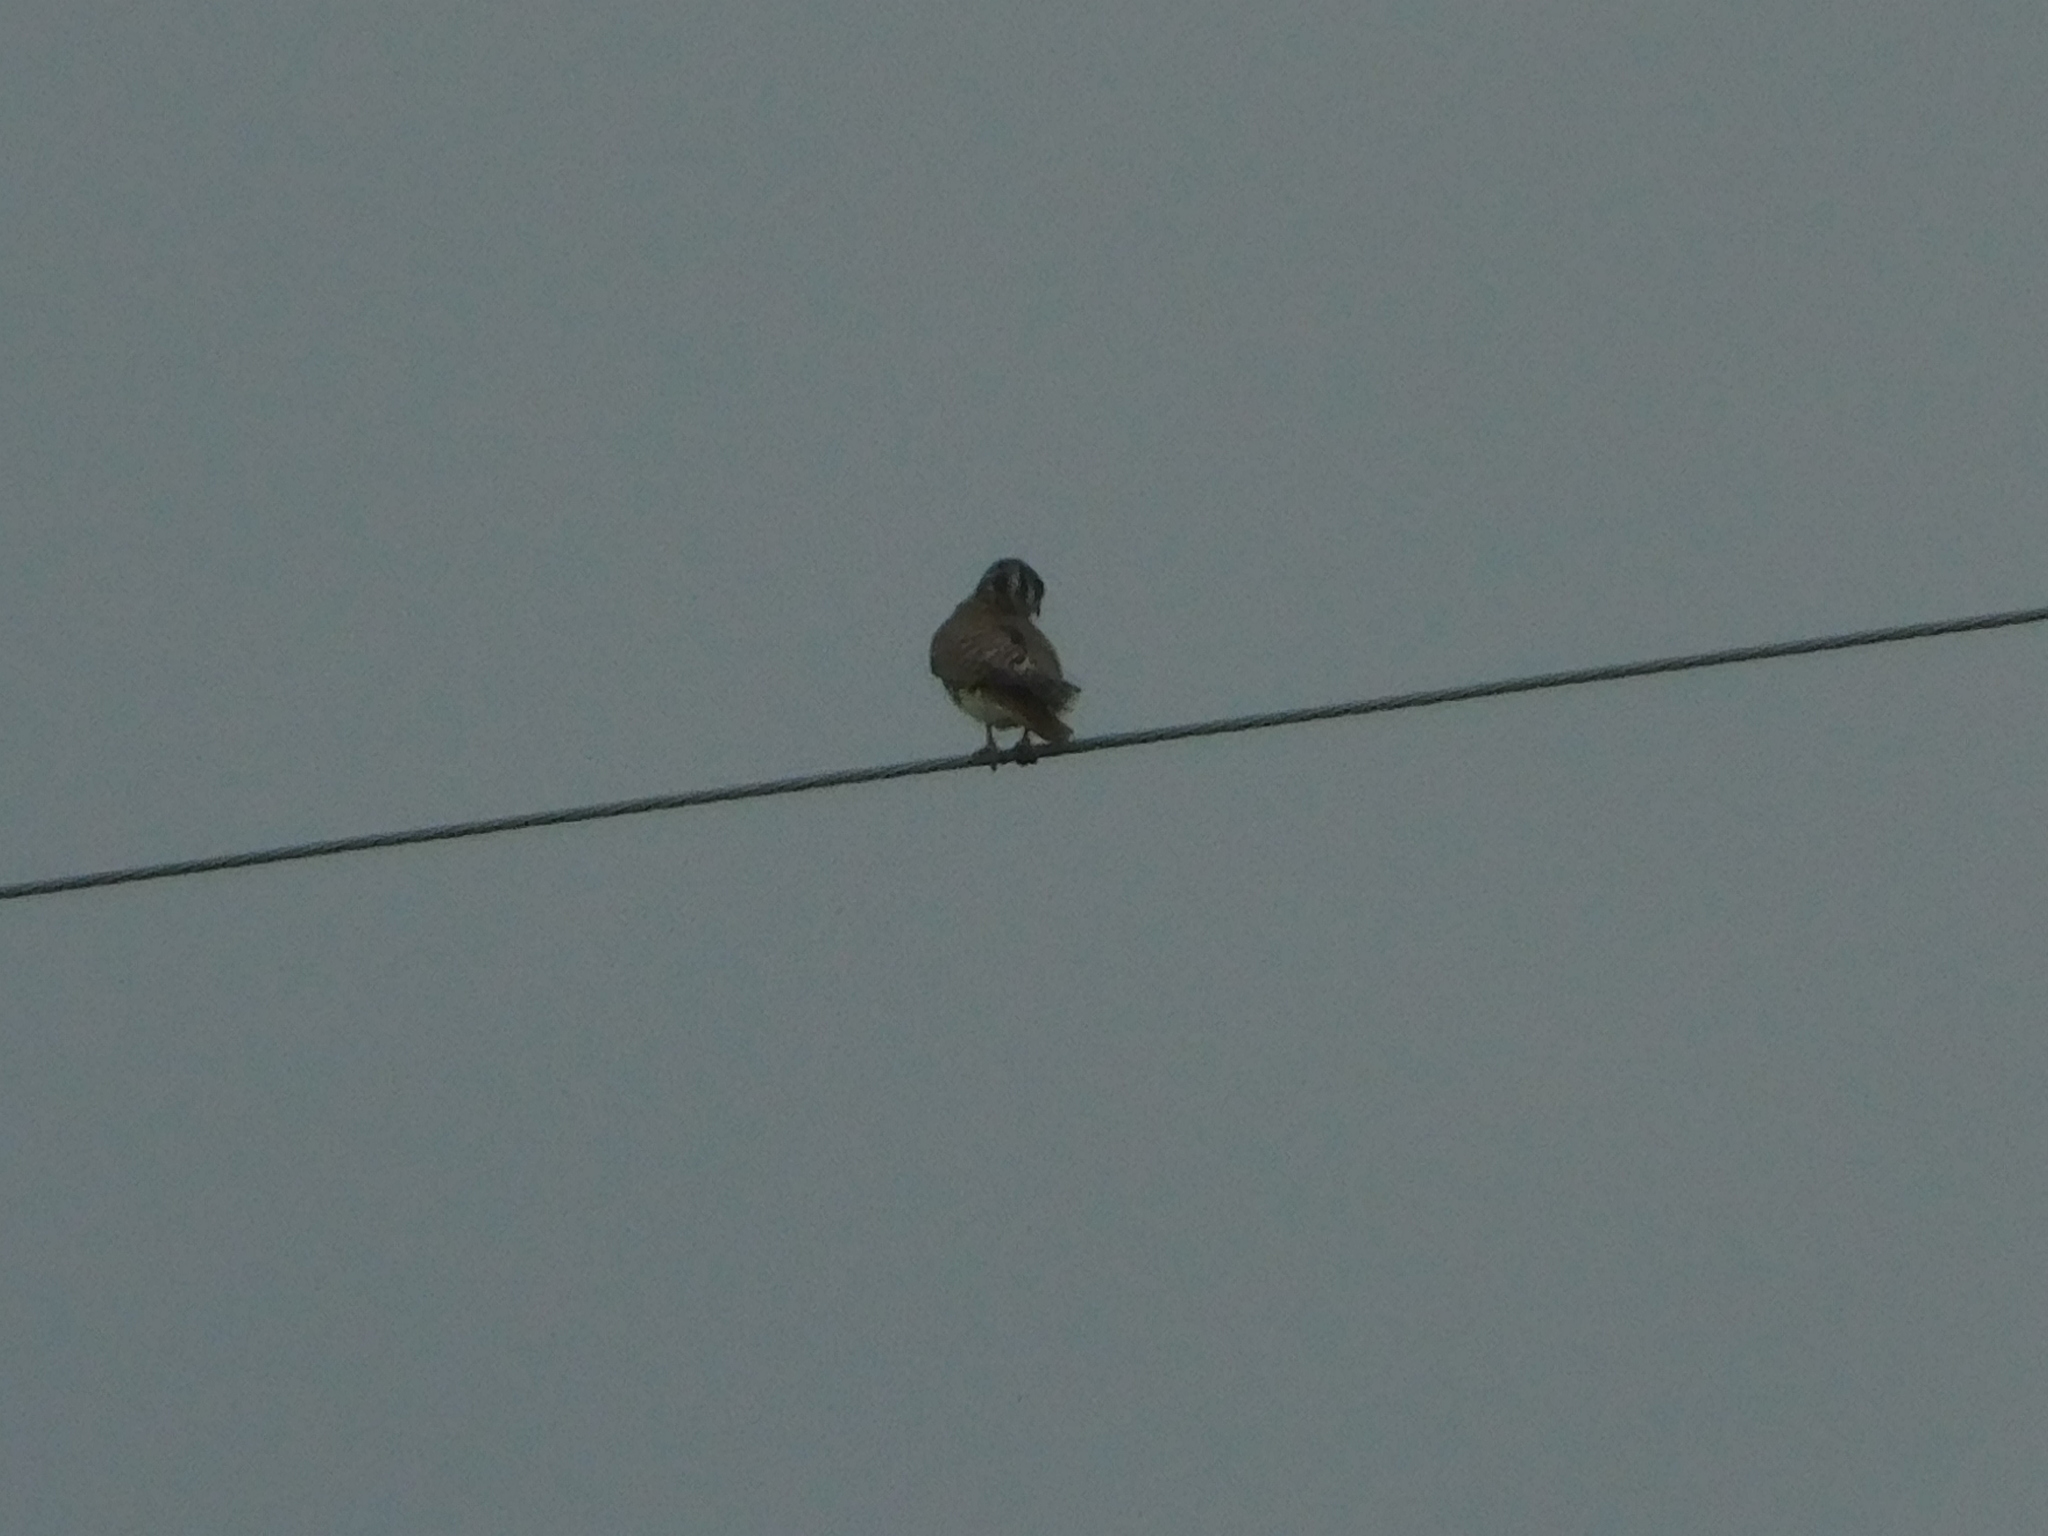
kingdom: Animalia
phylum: Chordata
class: Aves
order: Falconiformes
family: Falconidae
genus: Falco
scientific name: Falco sparverius
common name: American kestrel
